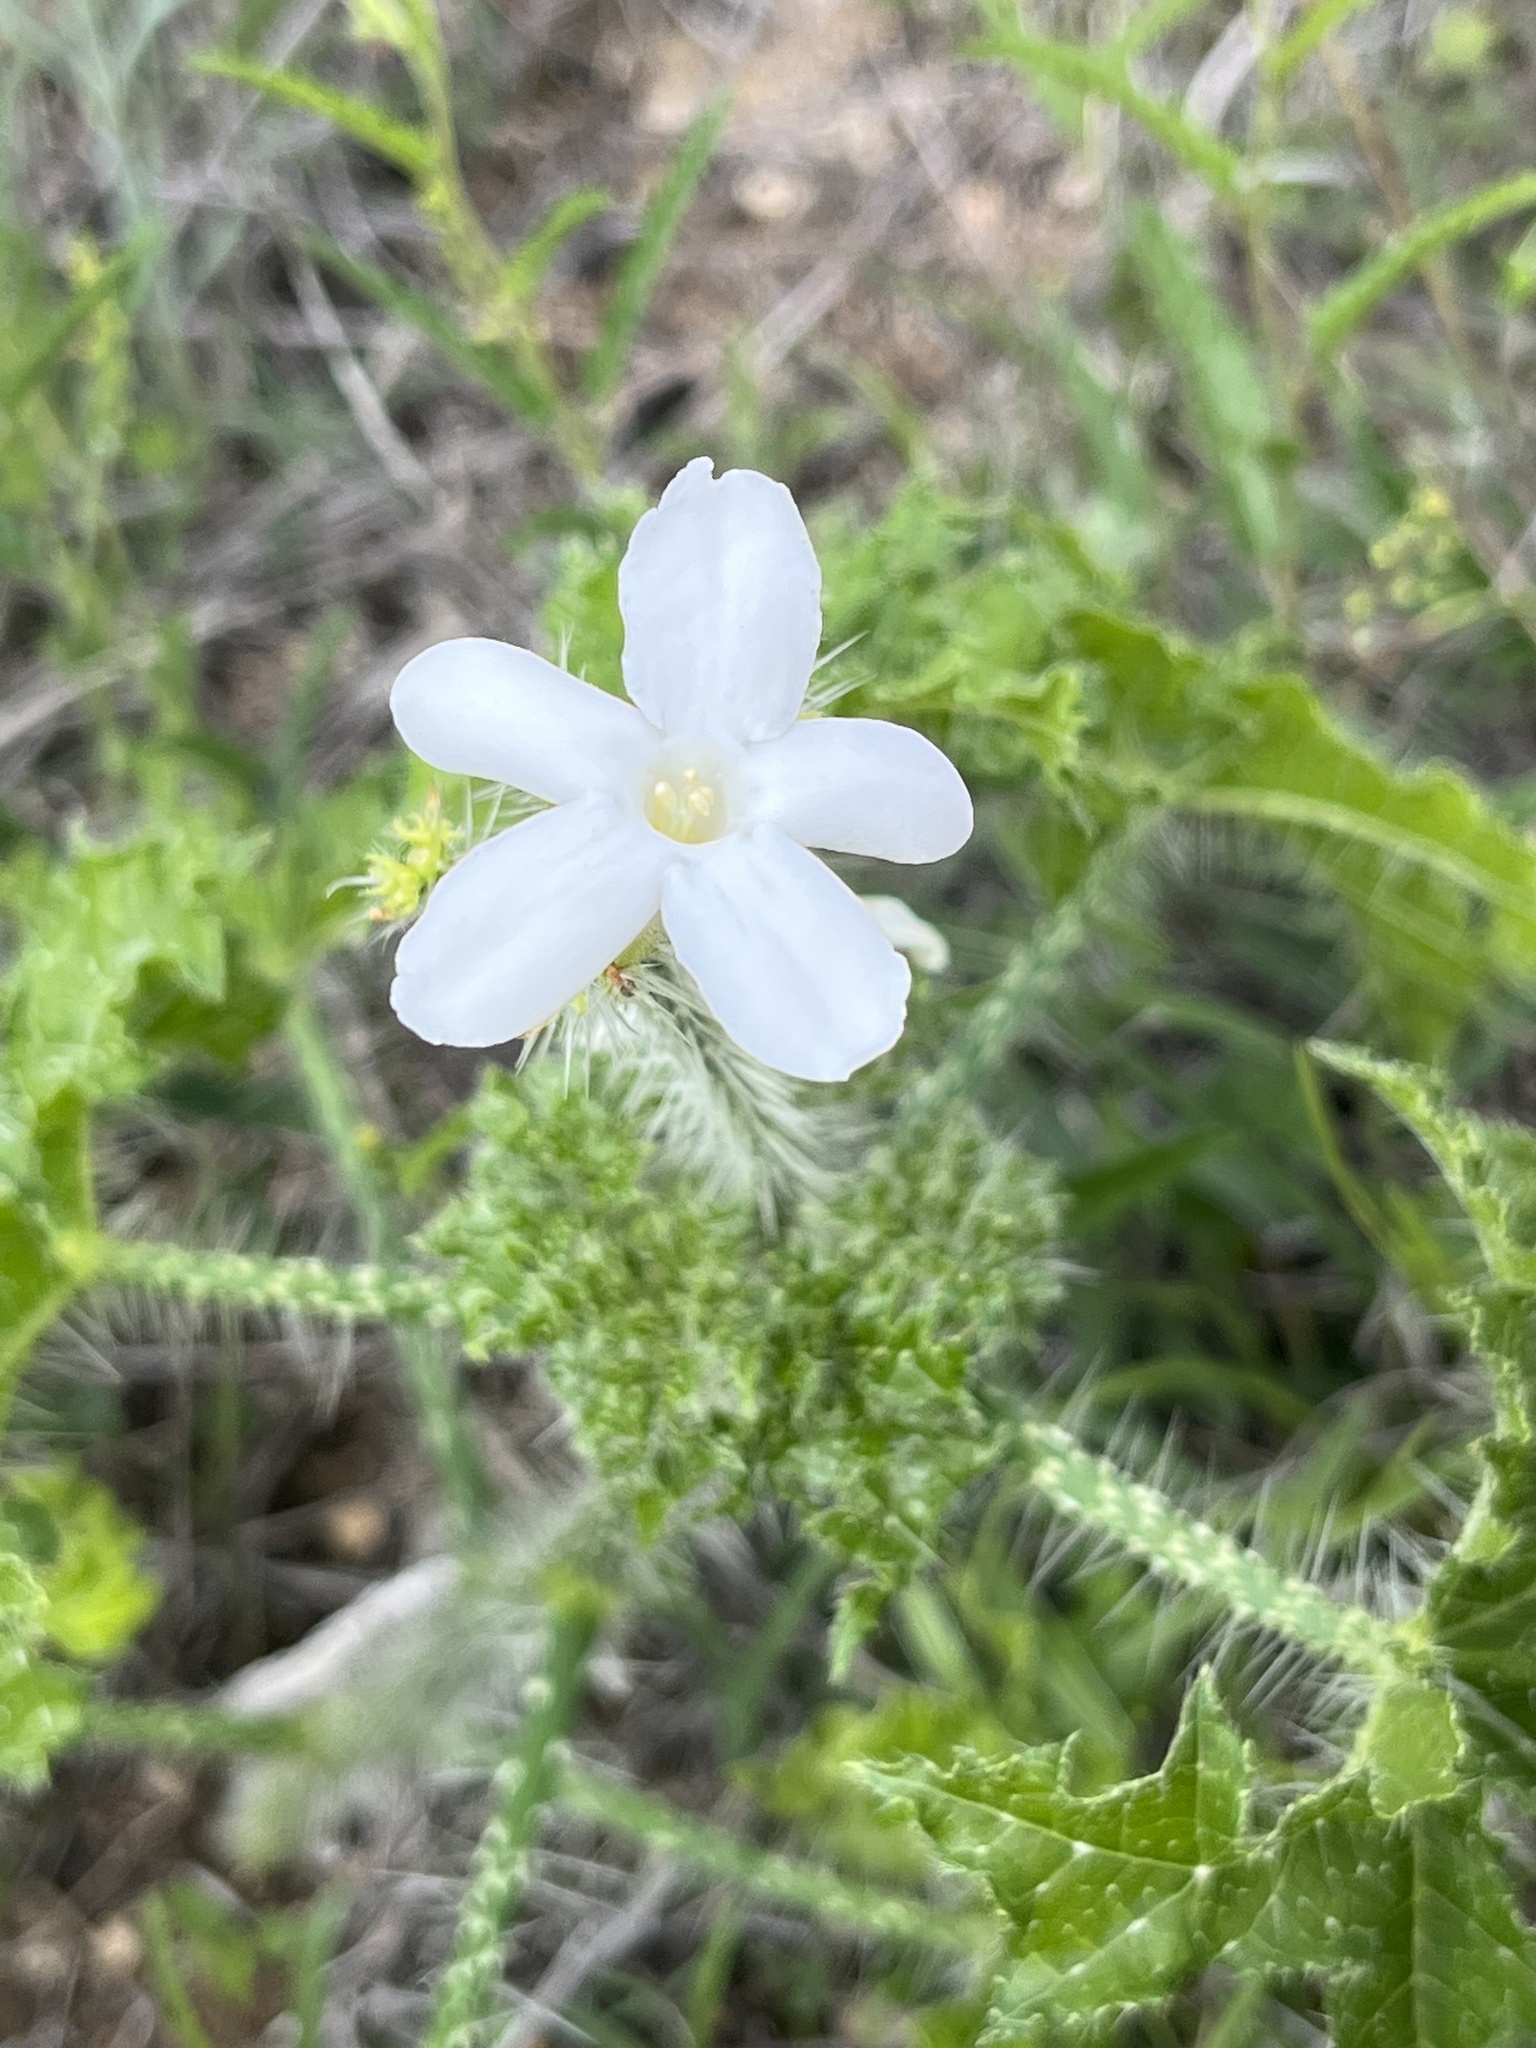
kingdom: Plantae
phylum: Tracheophyta
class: Magnoliopsida
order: Malpighiales
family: Euphorbiaceae
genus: Cnidoscolus
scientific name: Cnidoscolus texanus
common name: Texas bull-nettle
